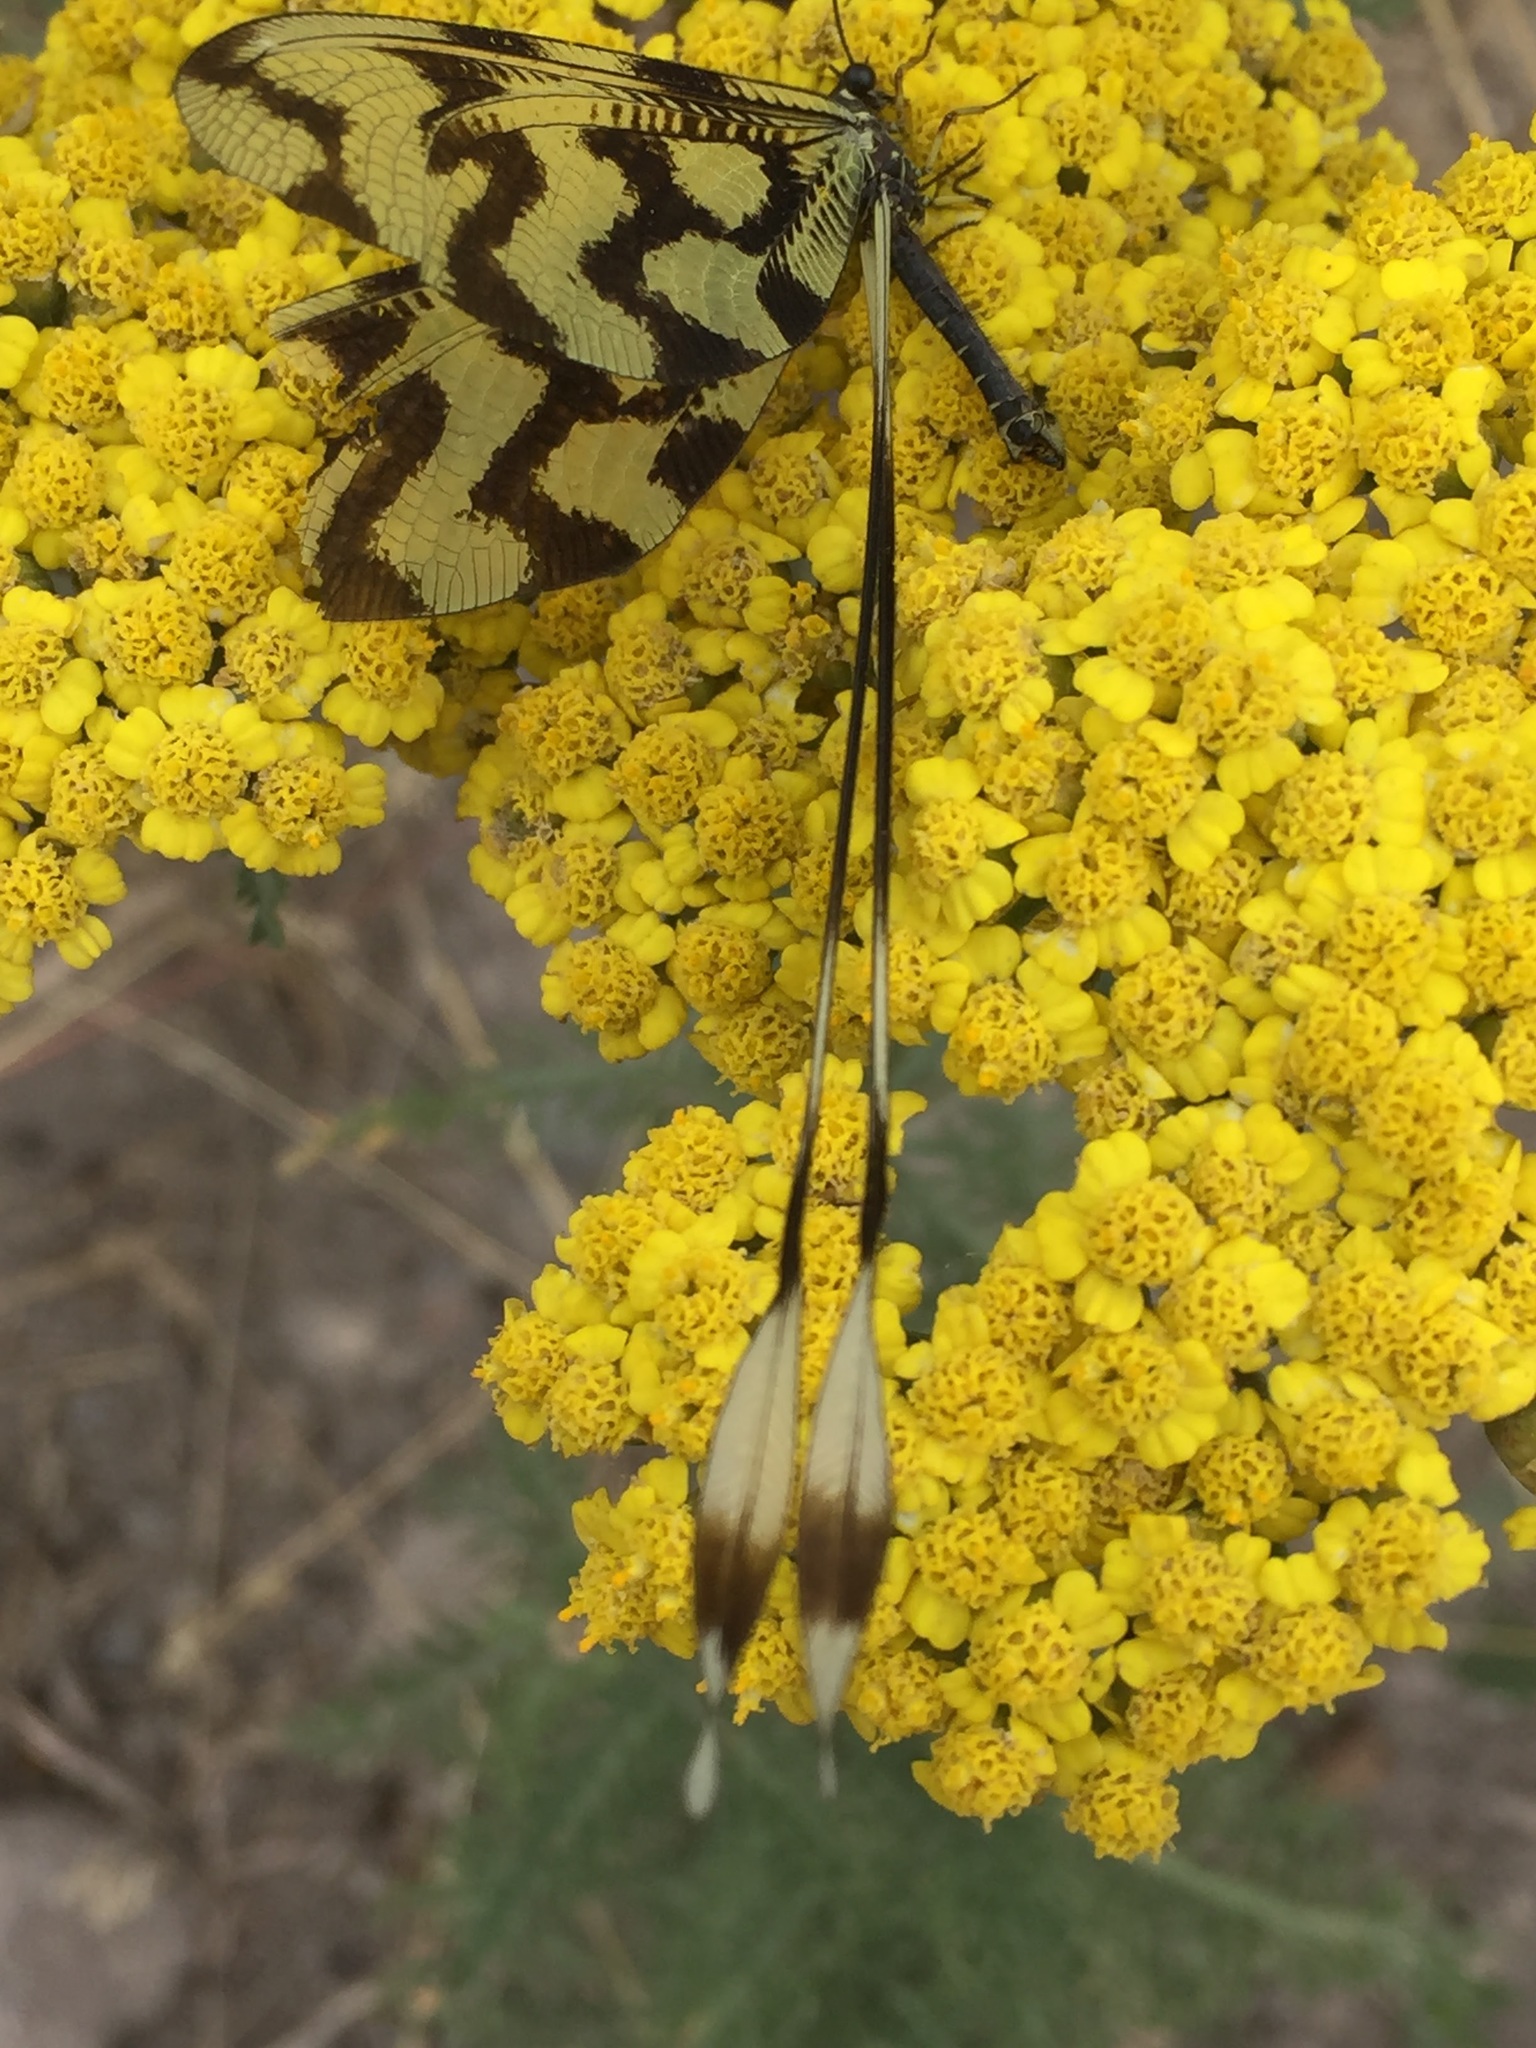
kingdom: Animalia
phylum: Arthropoda
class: Insecta
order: Neuroptera
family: Nemopteridae
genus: Nemoptera
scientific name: Nemoptera sinuata
